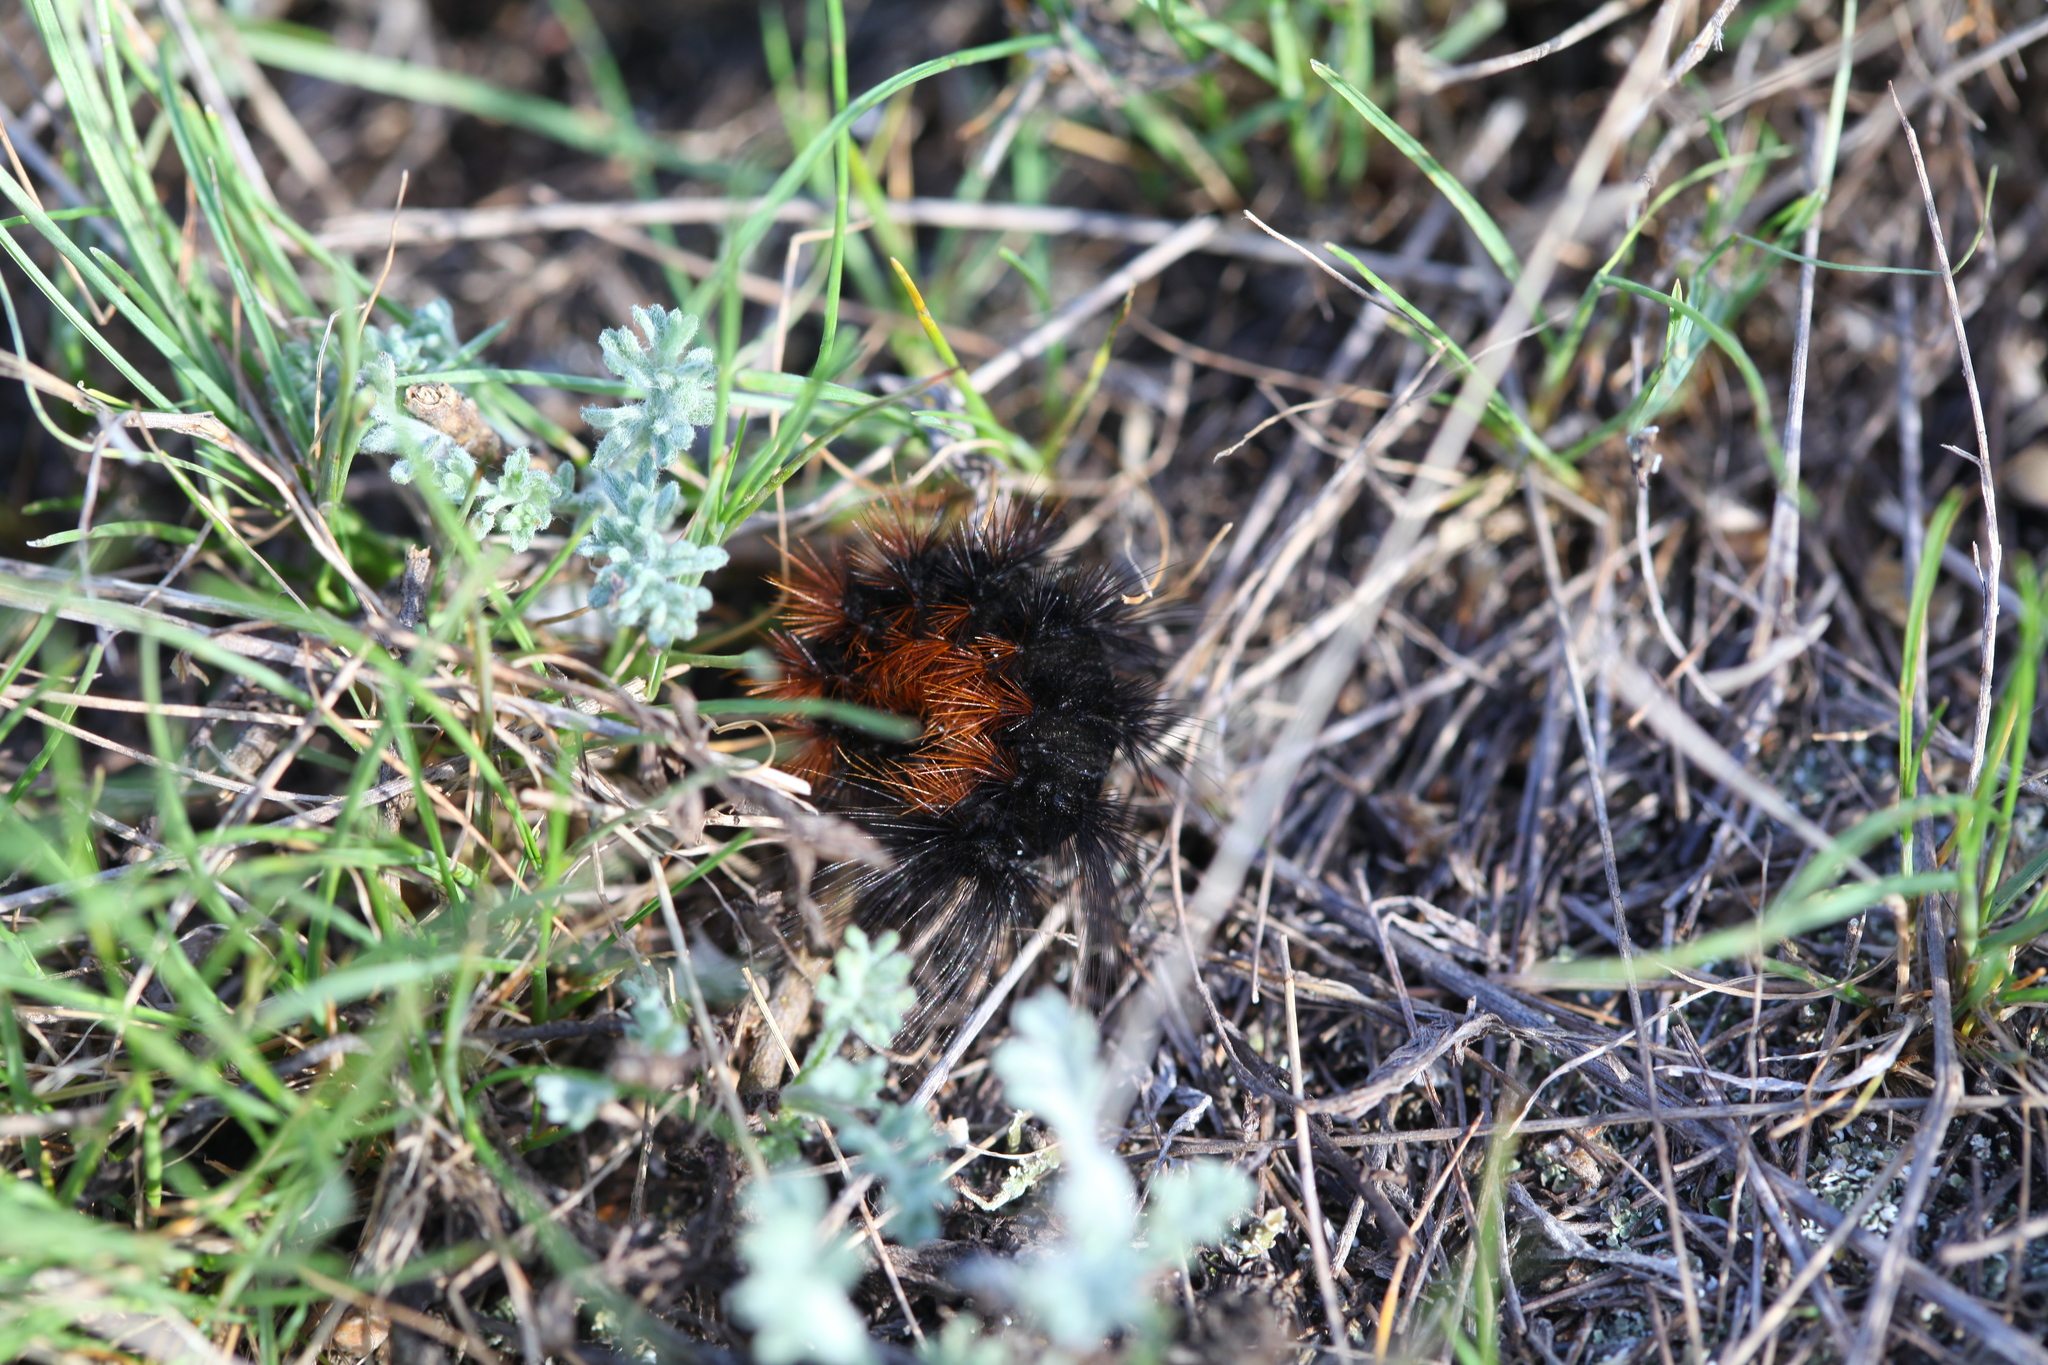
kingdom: Animalia
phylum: Arthropoda
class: Insecta
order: Lepidoptera
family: Erebidae
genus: Hyphoraia
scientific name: Hyphoraia aulica
